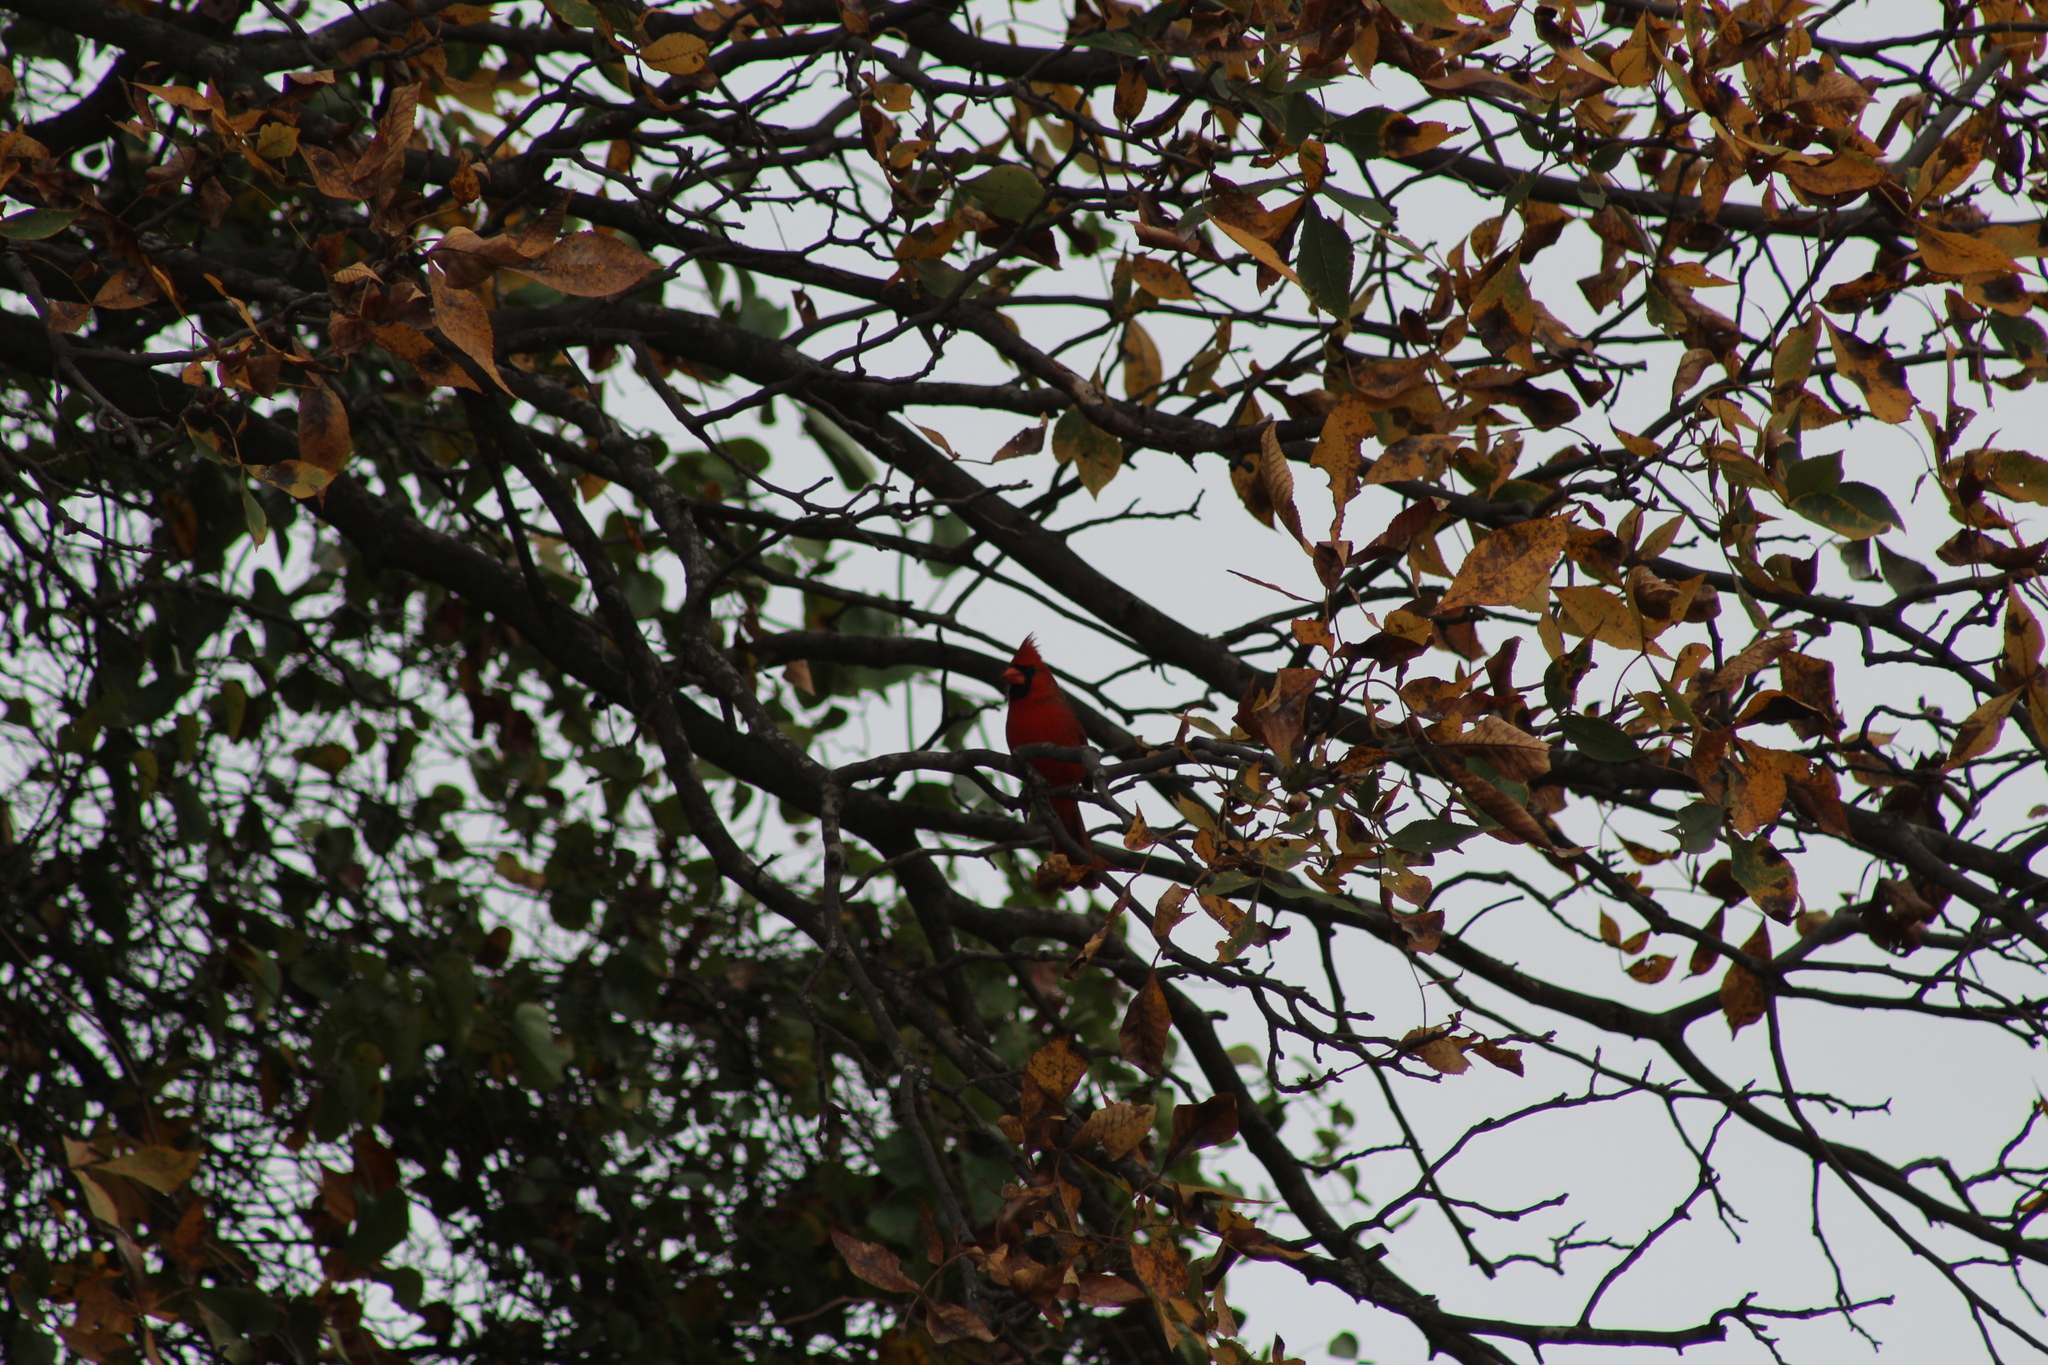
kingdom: Animalia
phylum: Chordata
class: Aves
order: Passeriformes
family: Cardinalidae
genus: Cardinalis
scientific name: Cardinalis cardinalis
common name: Northern cardinal
